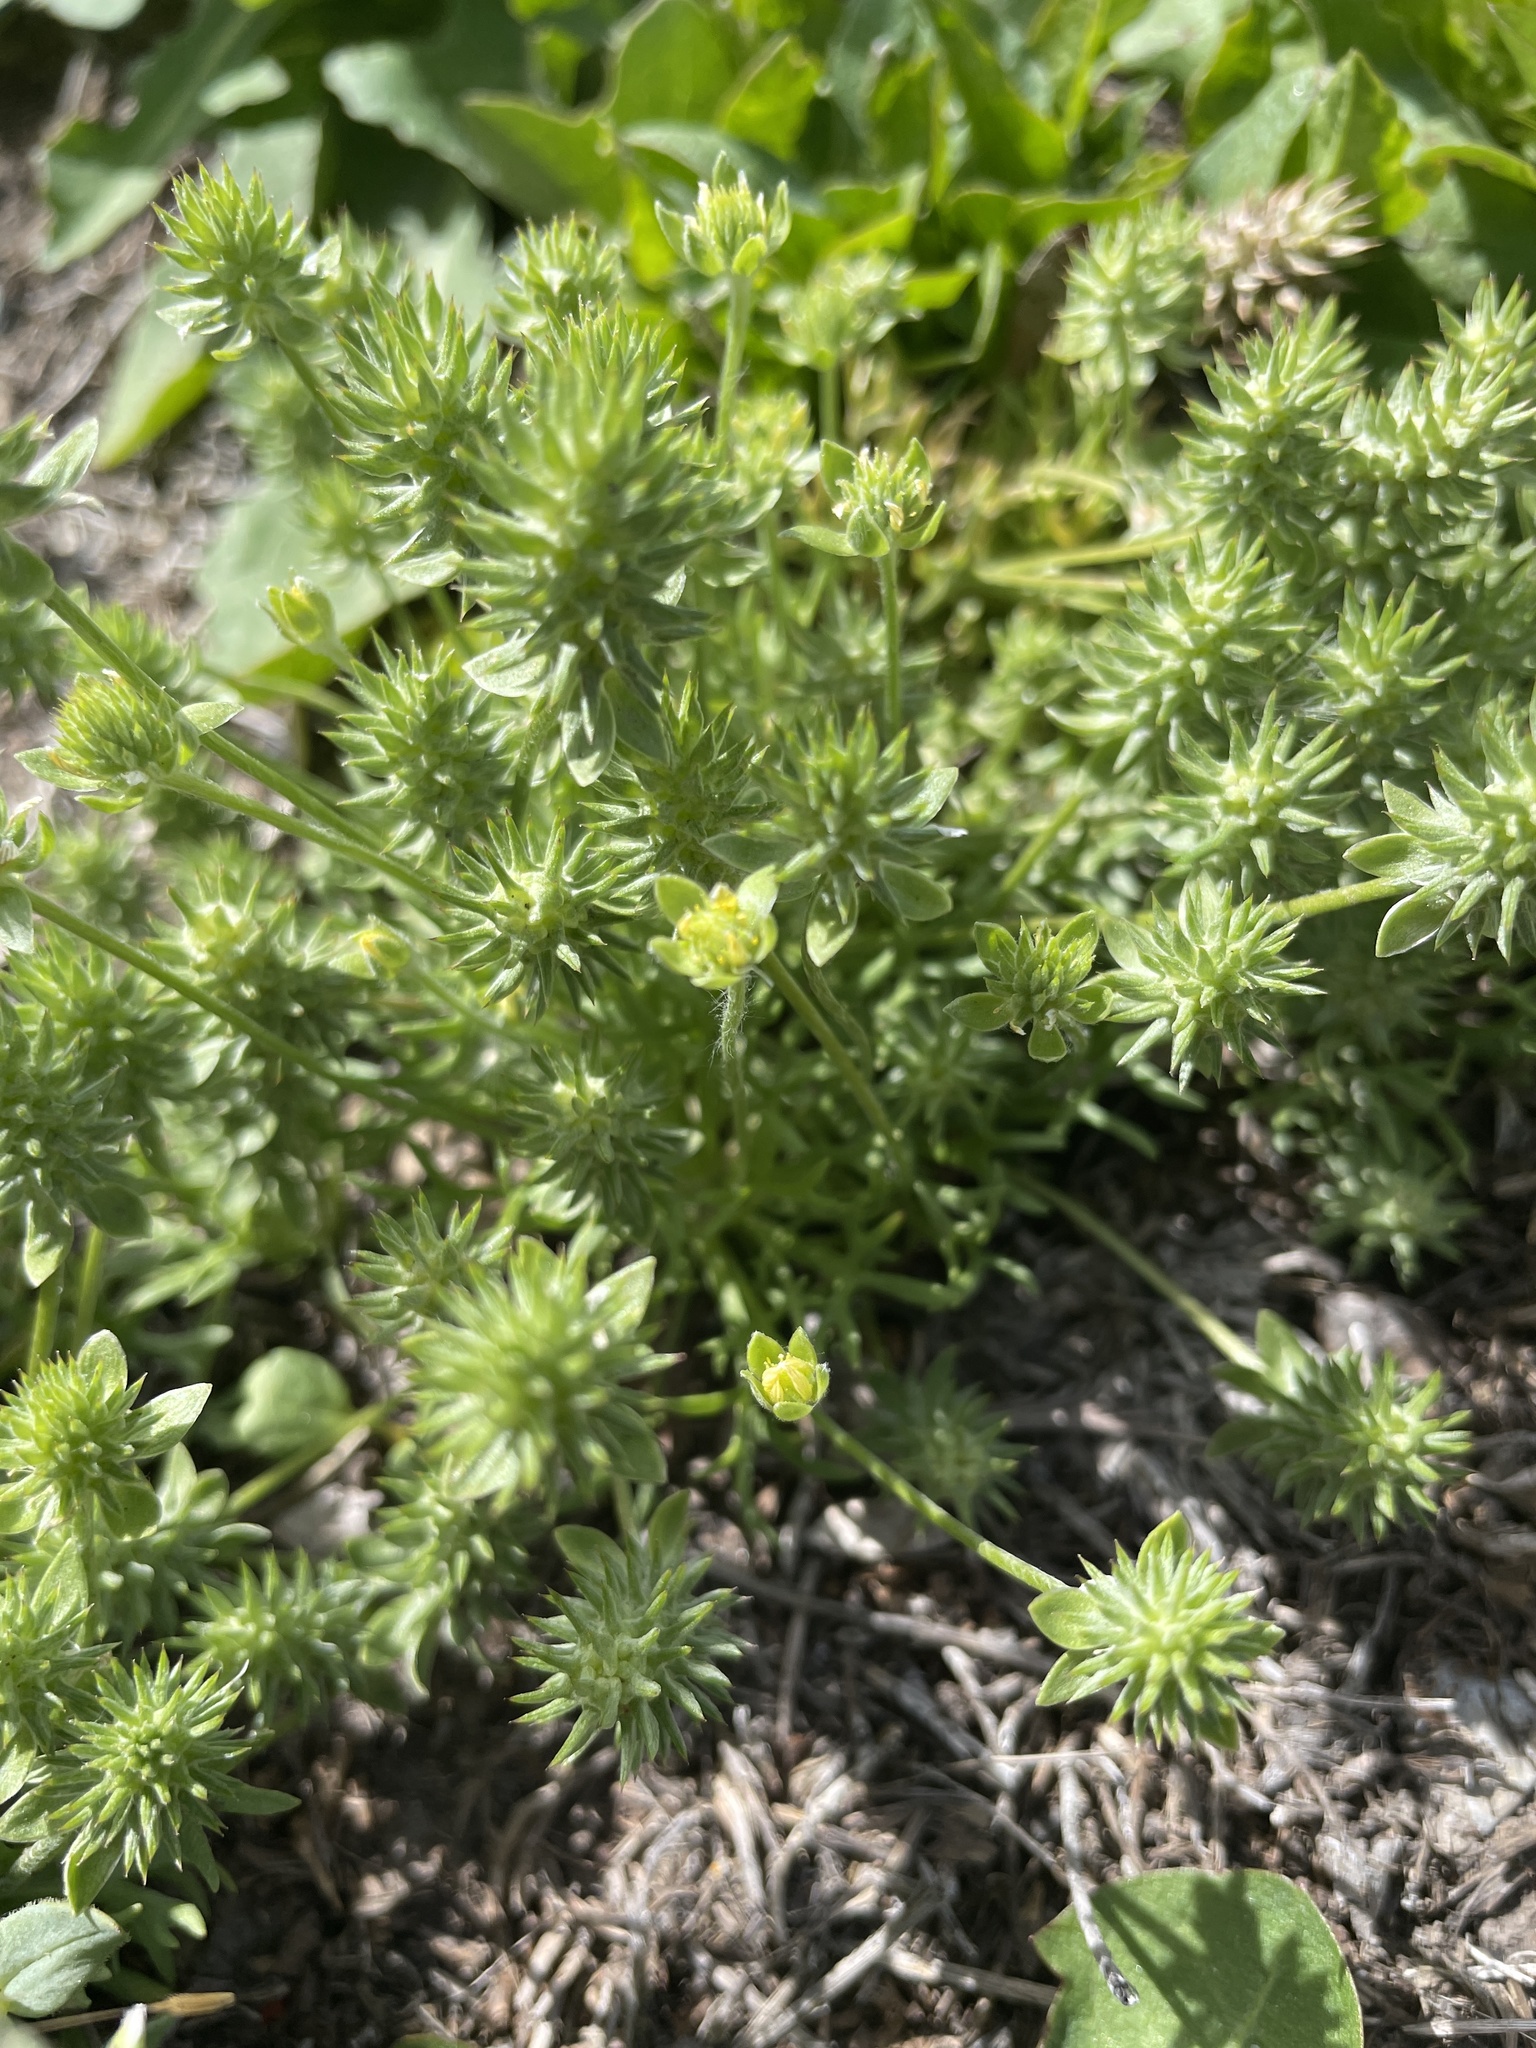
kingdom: Plantae
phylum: Tracheophyta
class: Magnoliopsida
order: Ranunculales
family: Ranunculaceae
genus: Ceratocephala
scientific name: Ceratocephala orthoceras
